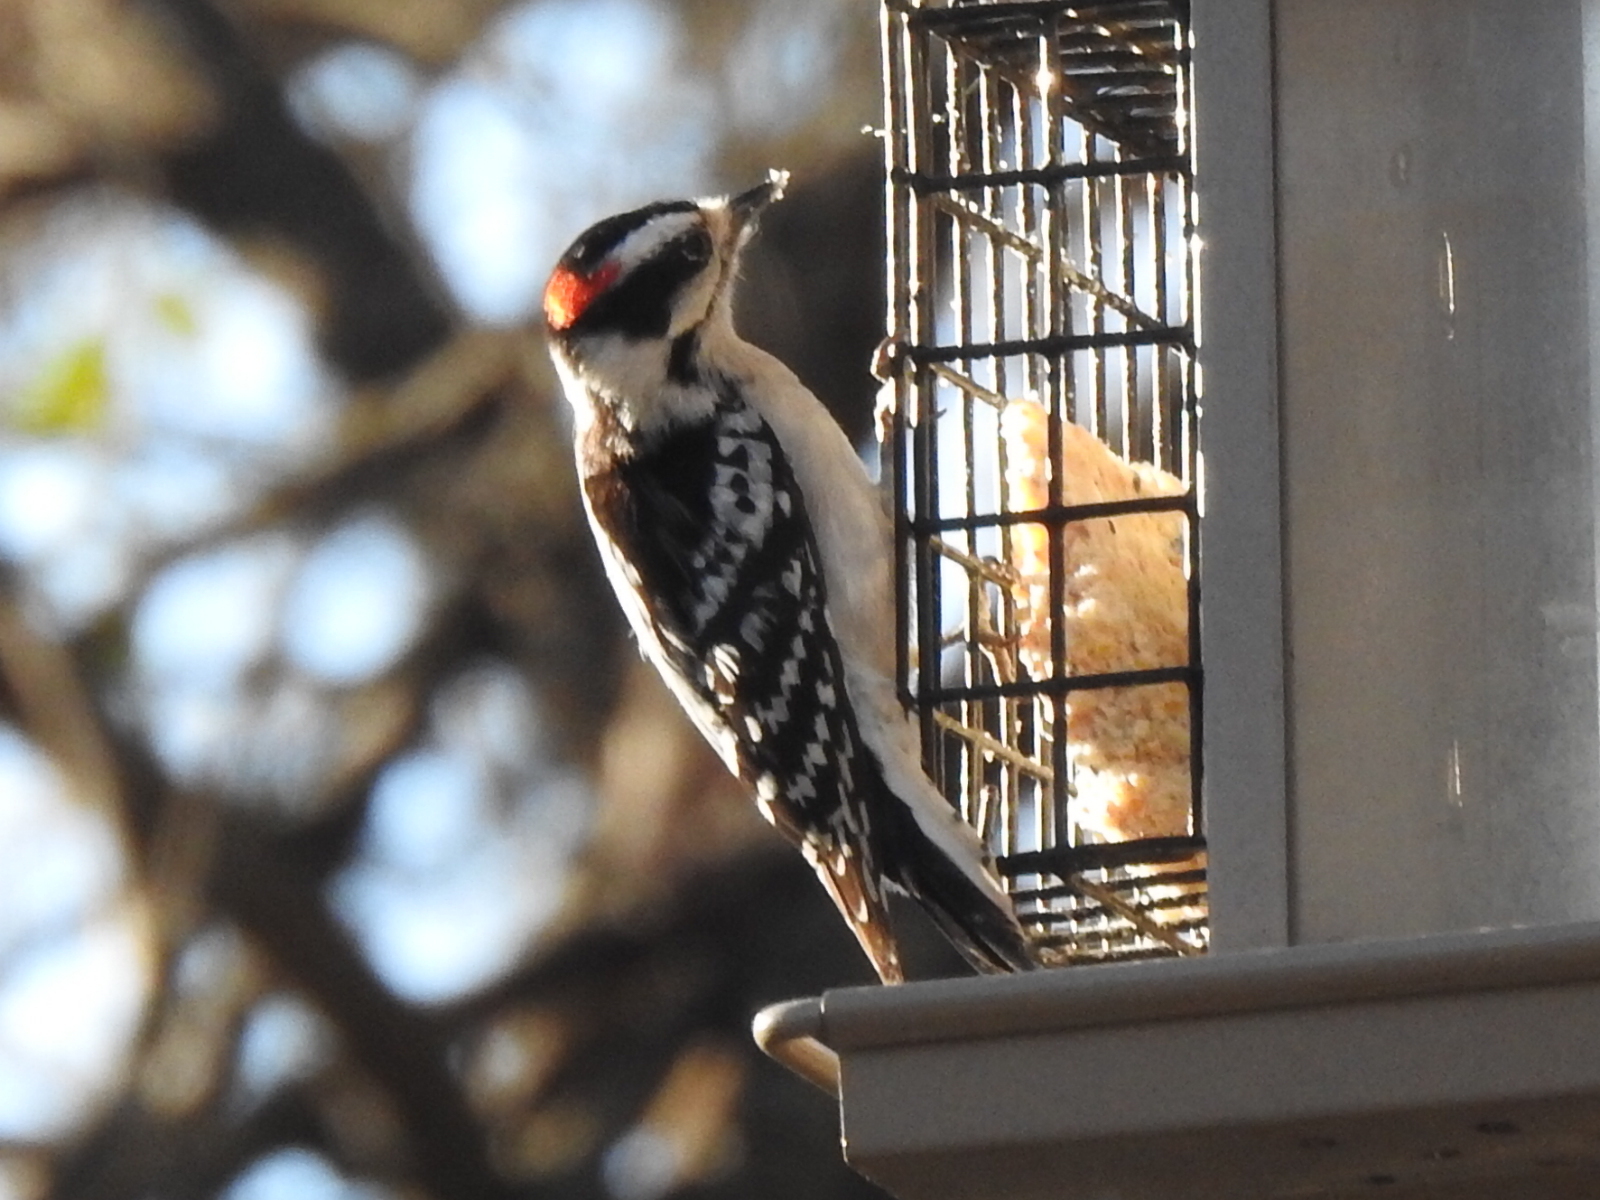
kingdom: Animalia
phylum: Chordata
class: Aves
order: Piciformes
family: Picidae
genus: Dryobates
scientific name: Dryobates pubescens
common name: Downy woodpecker
